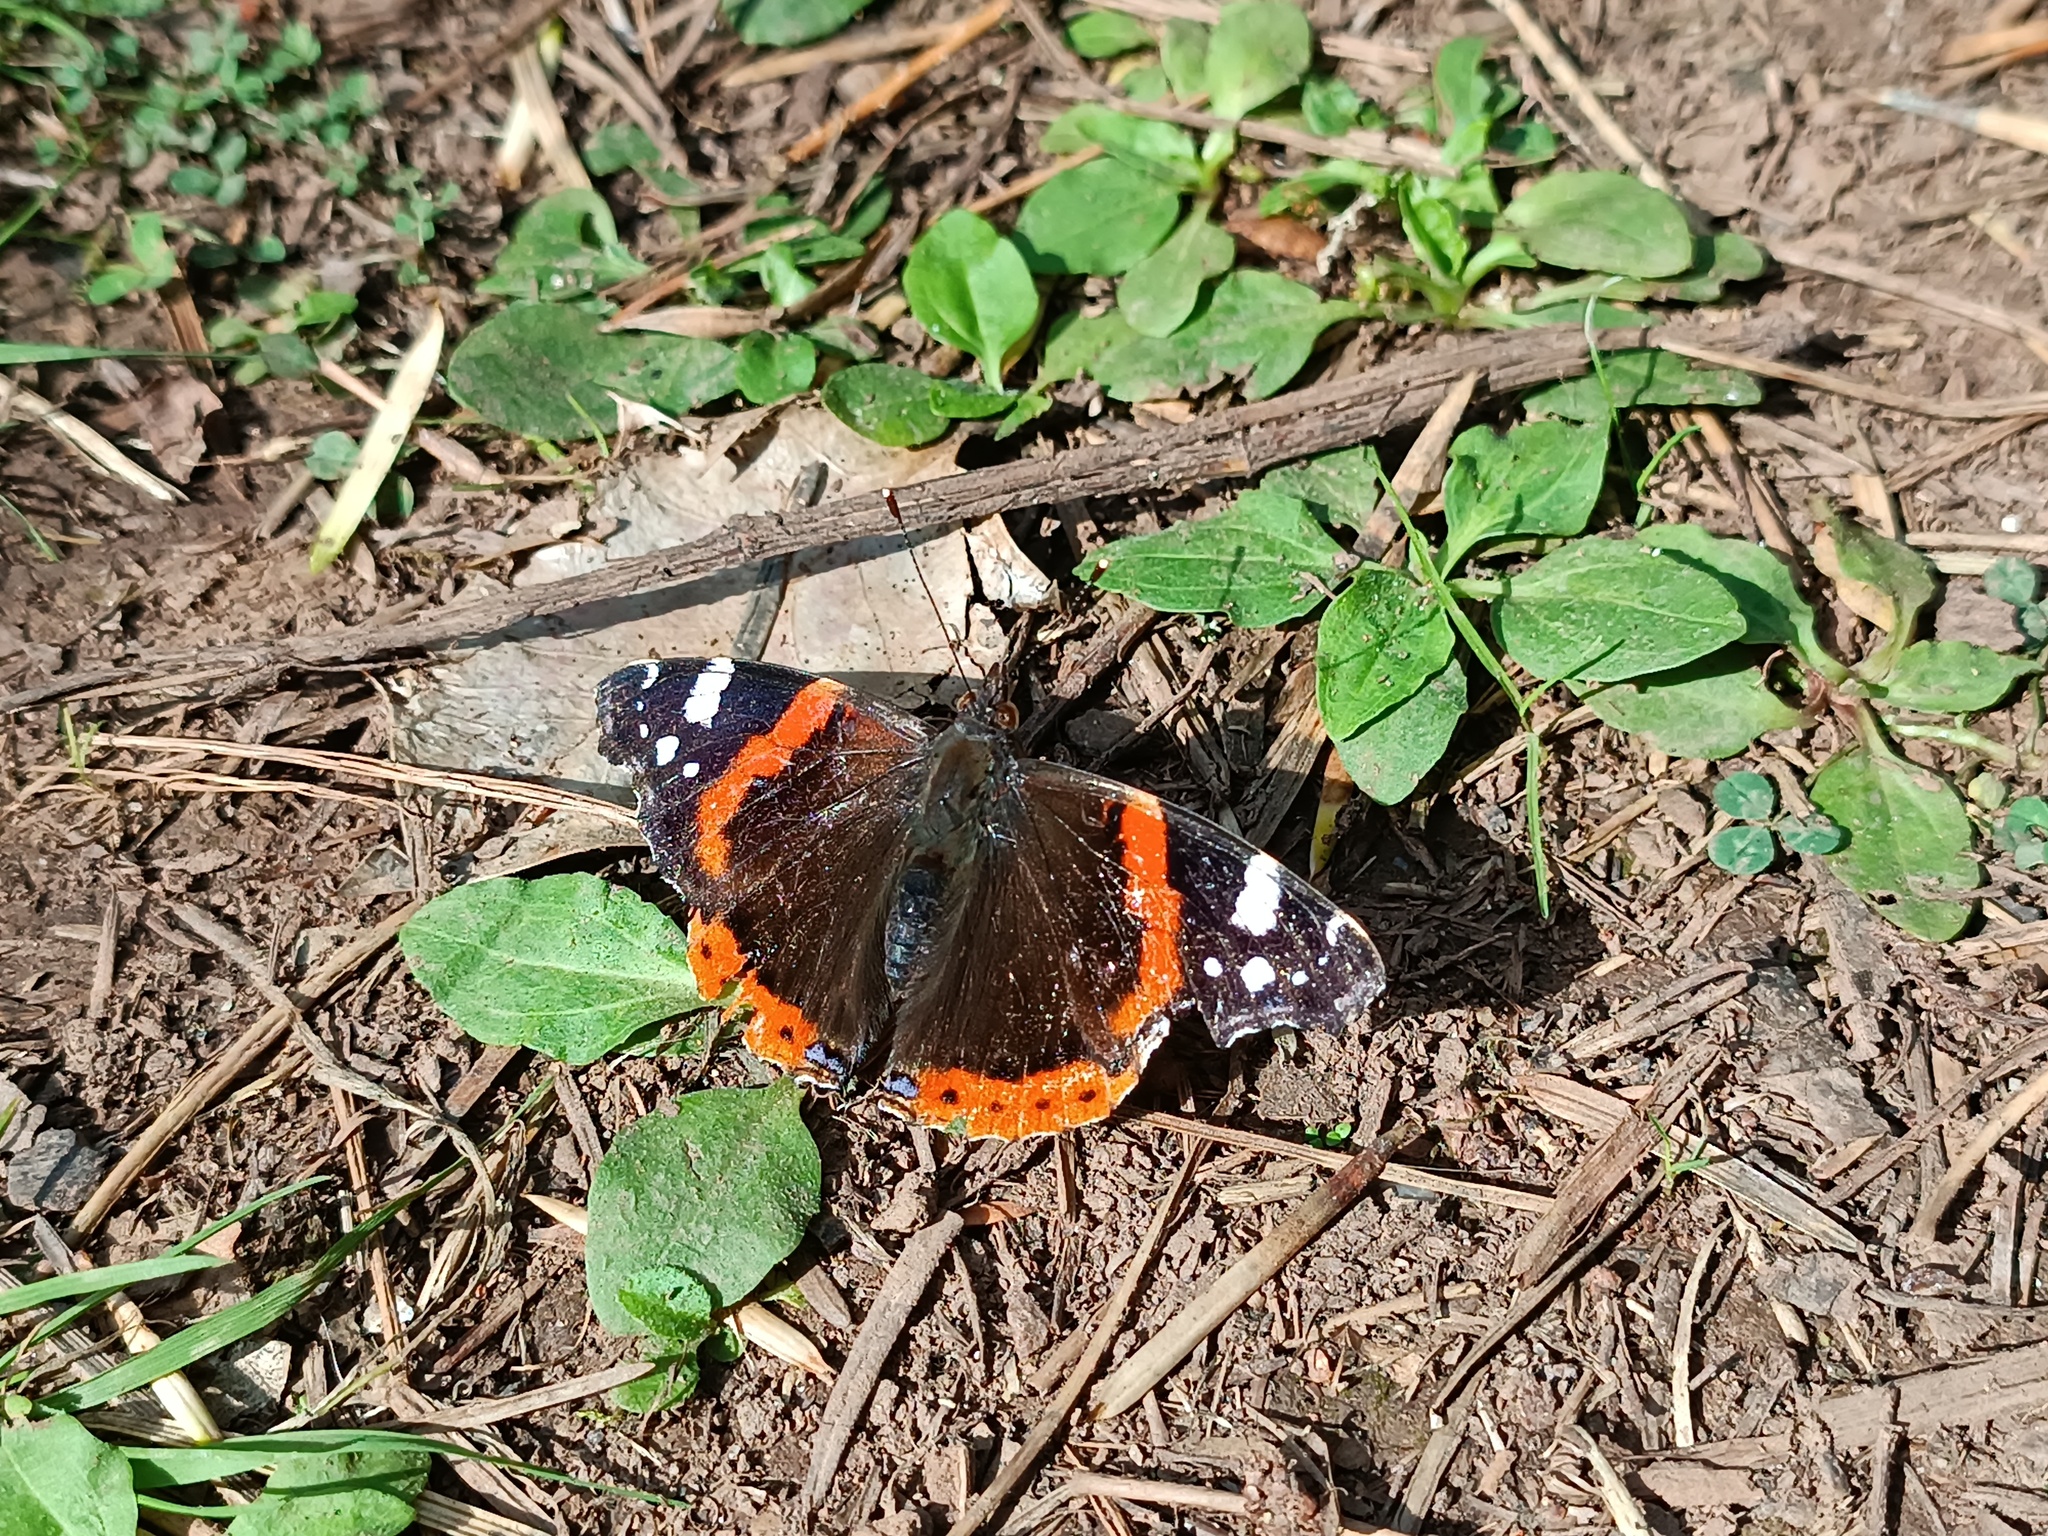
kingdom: Animalia
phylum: Arthropoda
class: Insecta
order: Lepidoptera
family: Nymphalidae
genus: Vanessa
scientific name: Vanessa atalanta
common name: Red admiral
